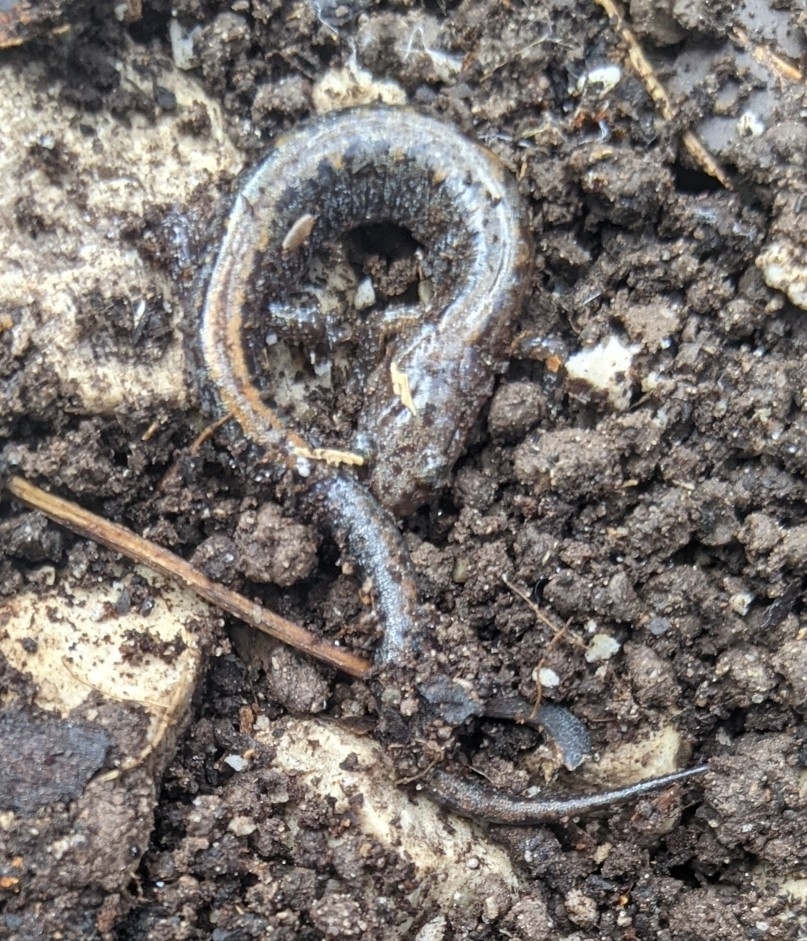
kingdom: Animalia
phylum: Chordata
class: Amphibia
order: Caudata
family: Plethodontidae
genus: Plethodon
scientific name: Plethodon dorsalis
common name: Northern zigzag salamander
